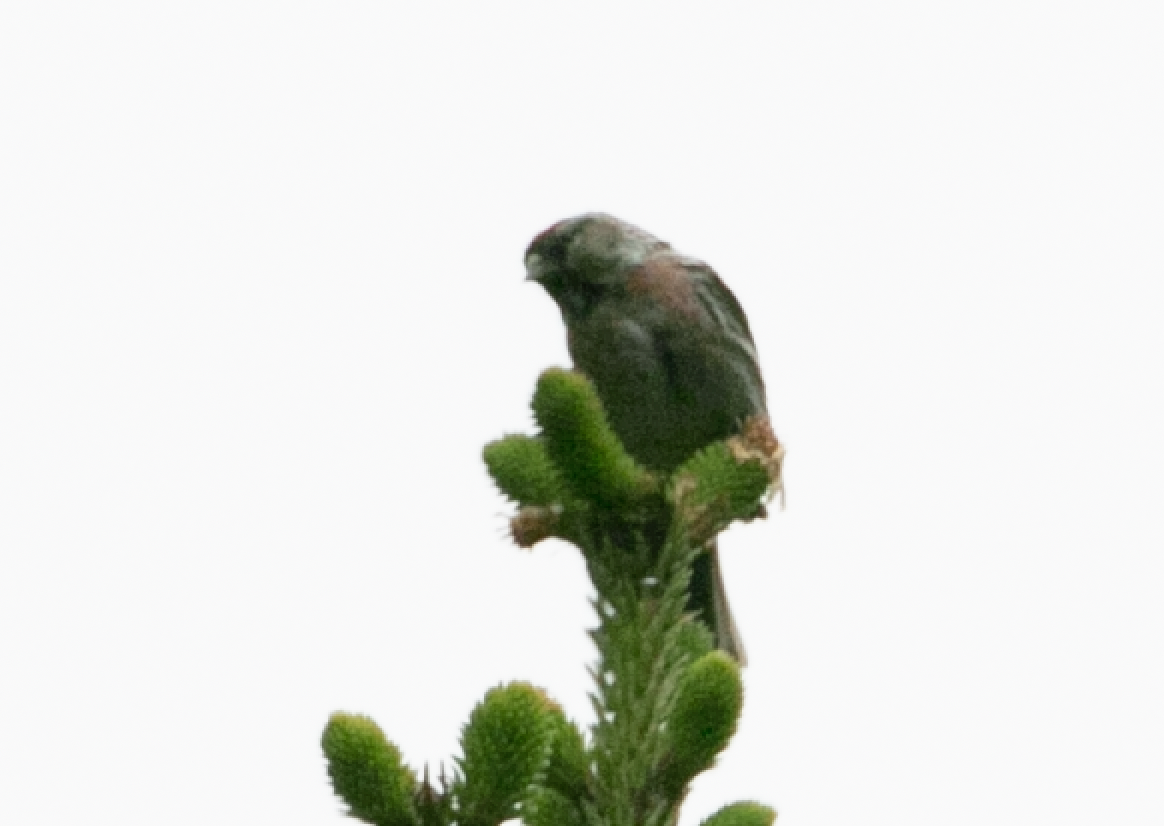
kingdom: Animalia
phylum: Chordata
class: Aves
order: Passeriformes
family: Fringillidae
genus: Acanthis
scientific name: Acanthis flammea
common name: Common redpoll
